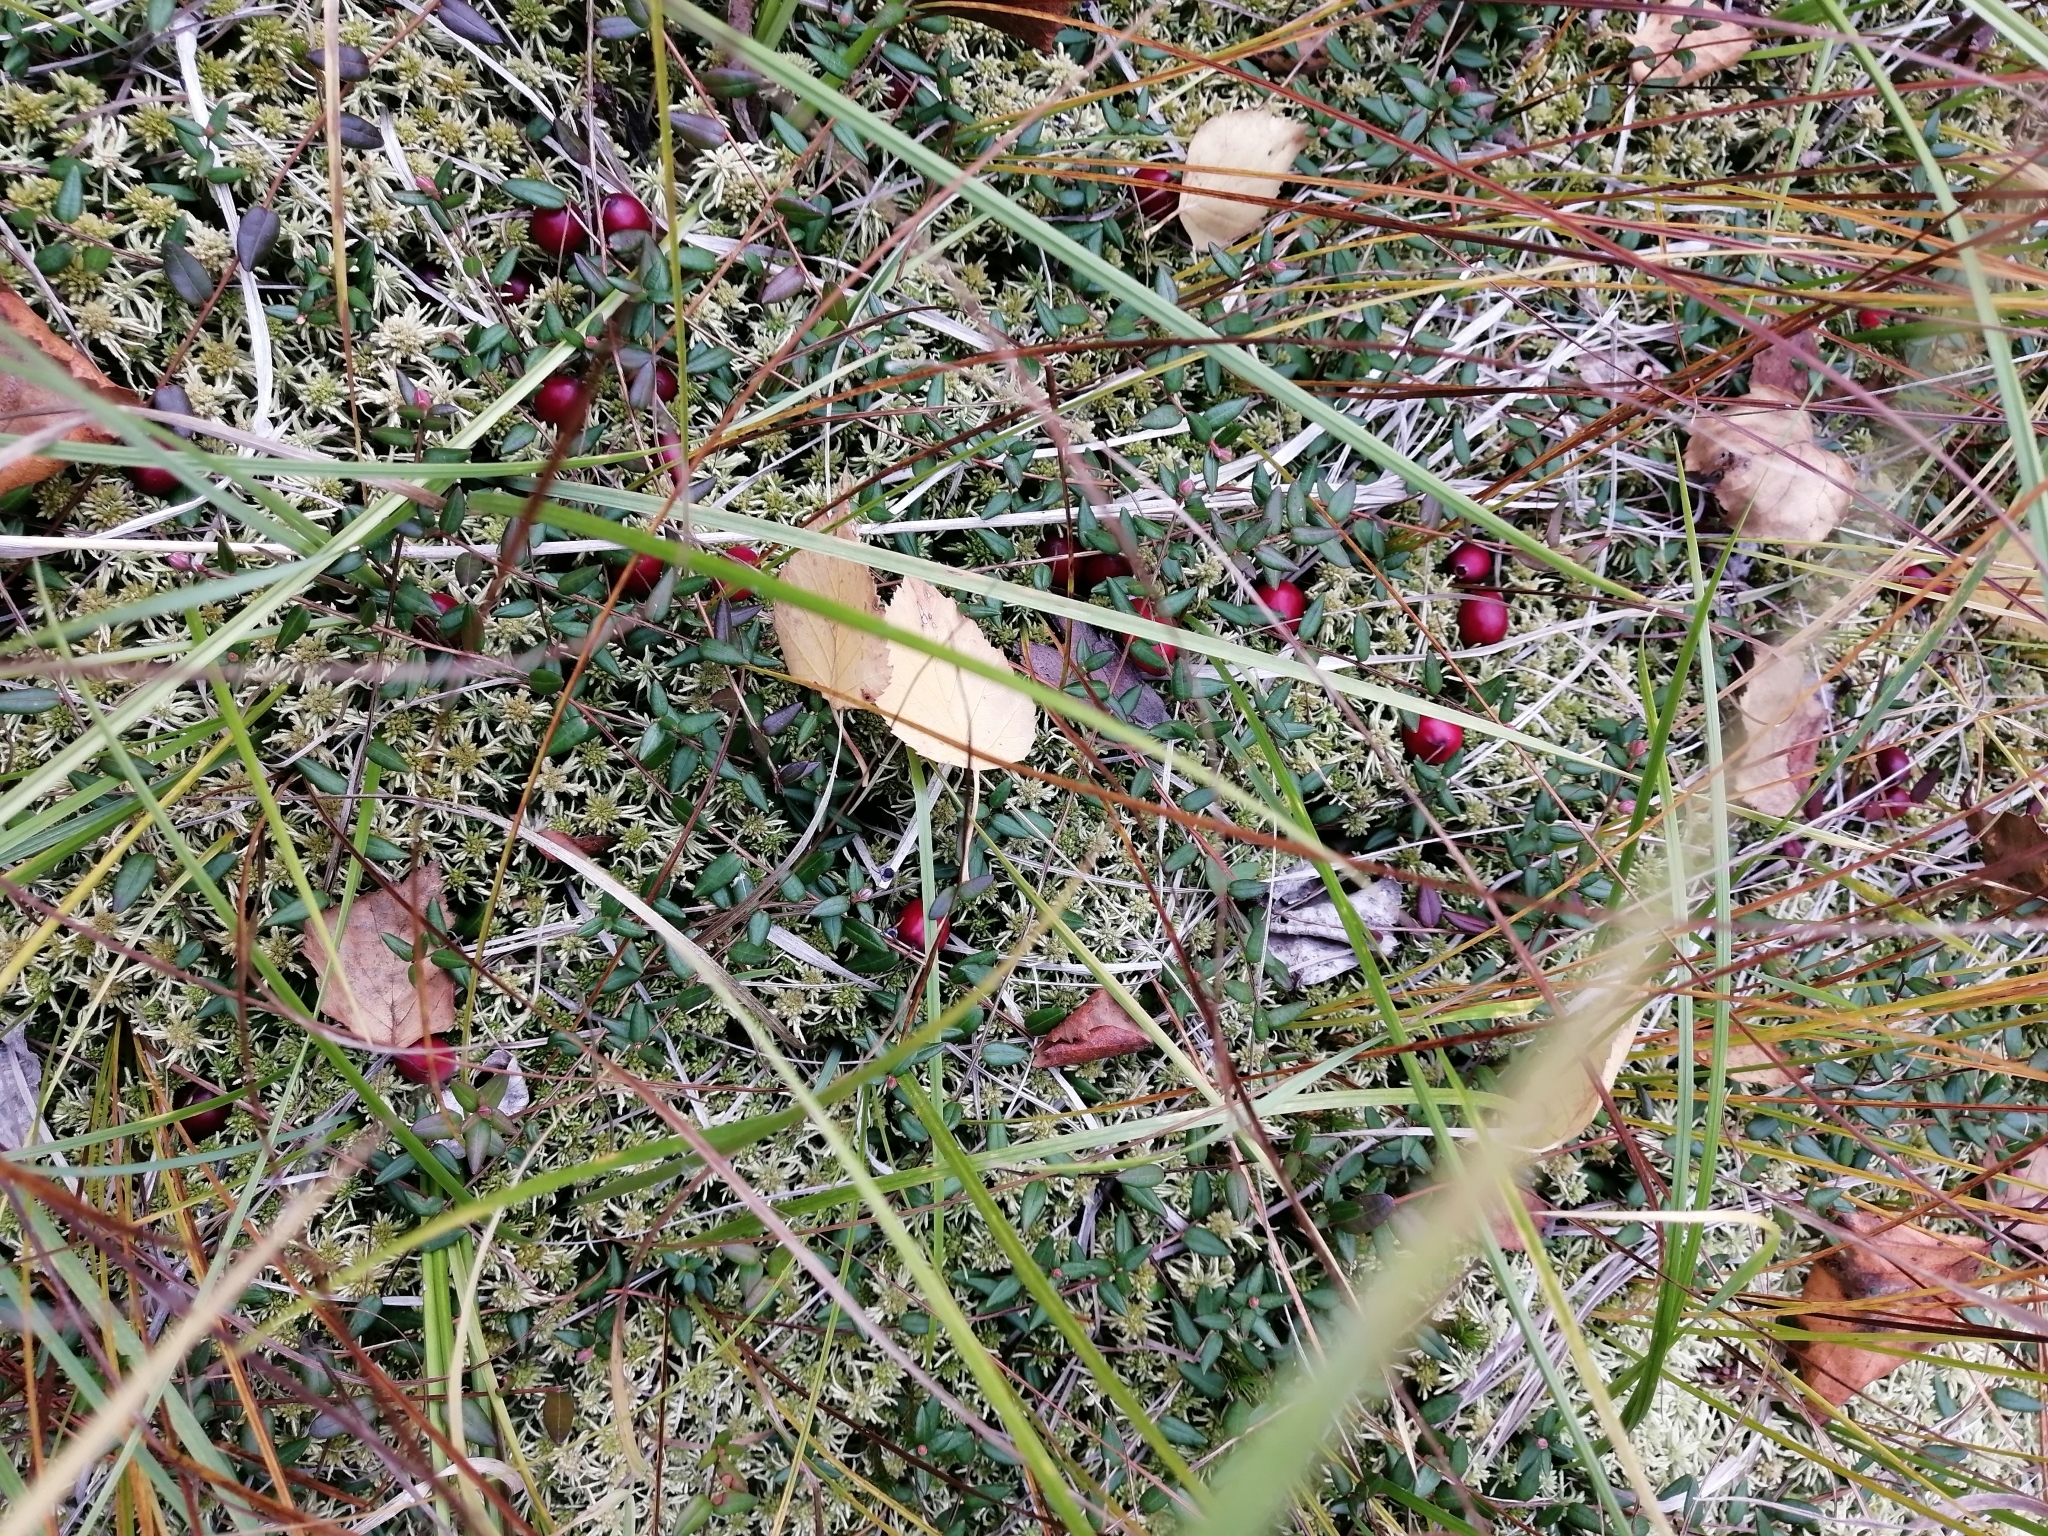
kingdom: Plantae
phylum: Tracheophyta
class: Magnoliopsida
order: Ericales
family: Ericaceae
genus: Vaccinium
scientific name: Vaccinium oxycoccos
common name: Cranberry
